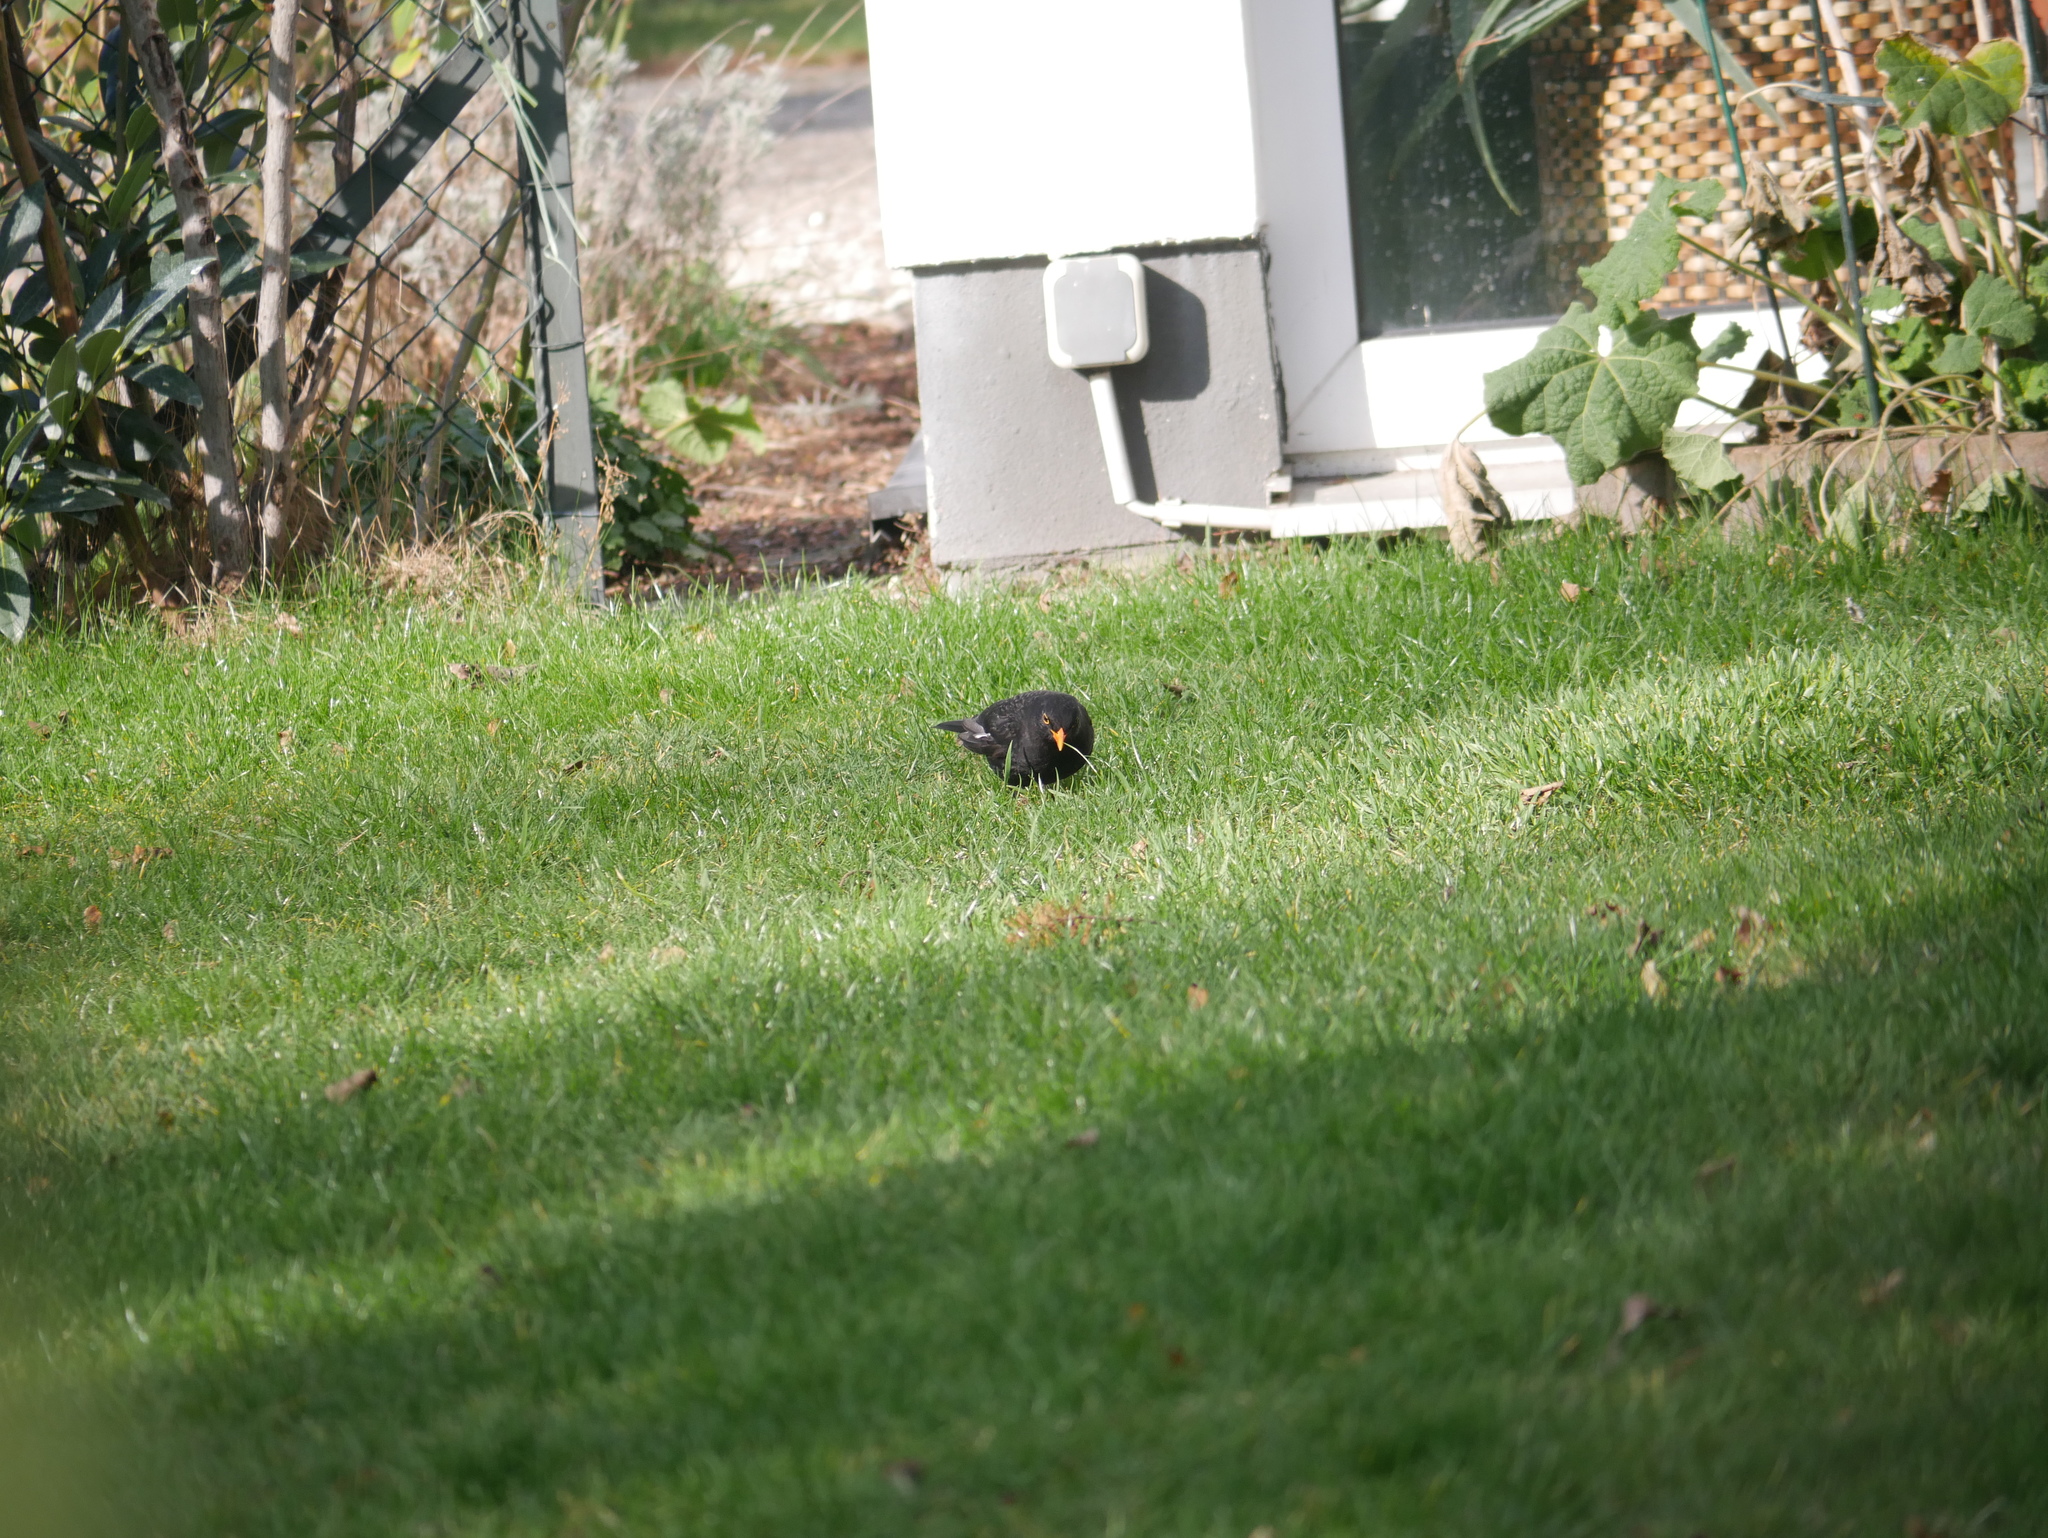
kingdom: Animalia
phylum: Chordata
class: Aves
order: Passeriformes
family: Turdidae
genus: Turdus
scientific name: Turdus merula
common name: Common blackbird
